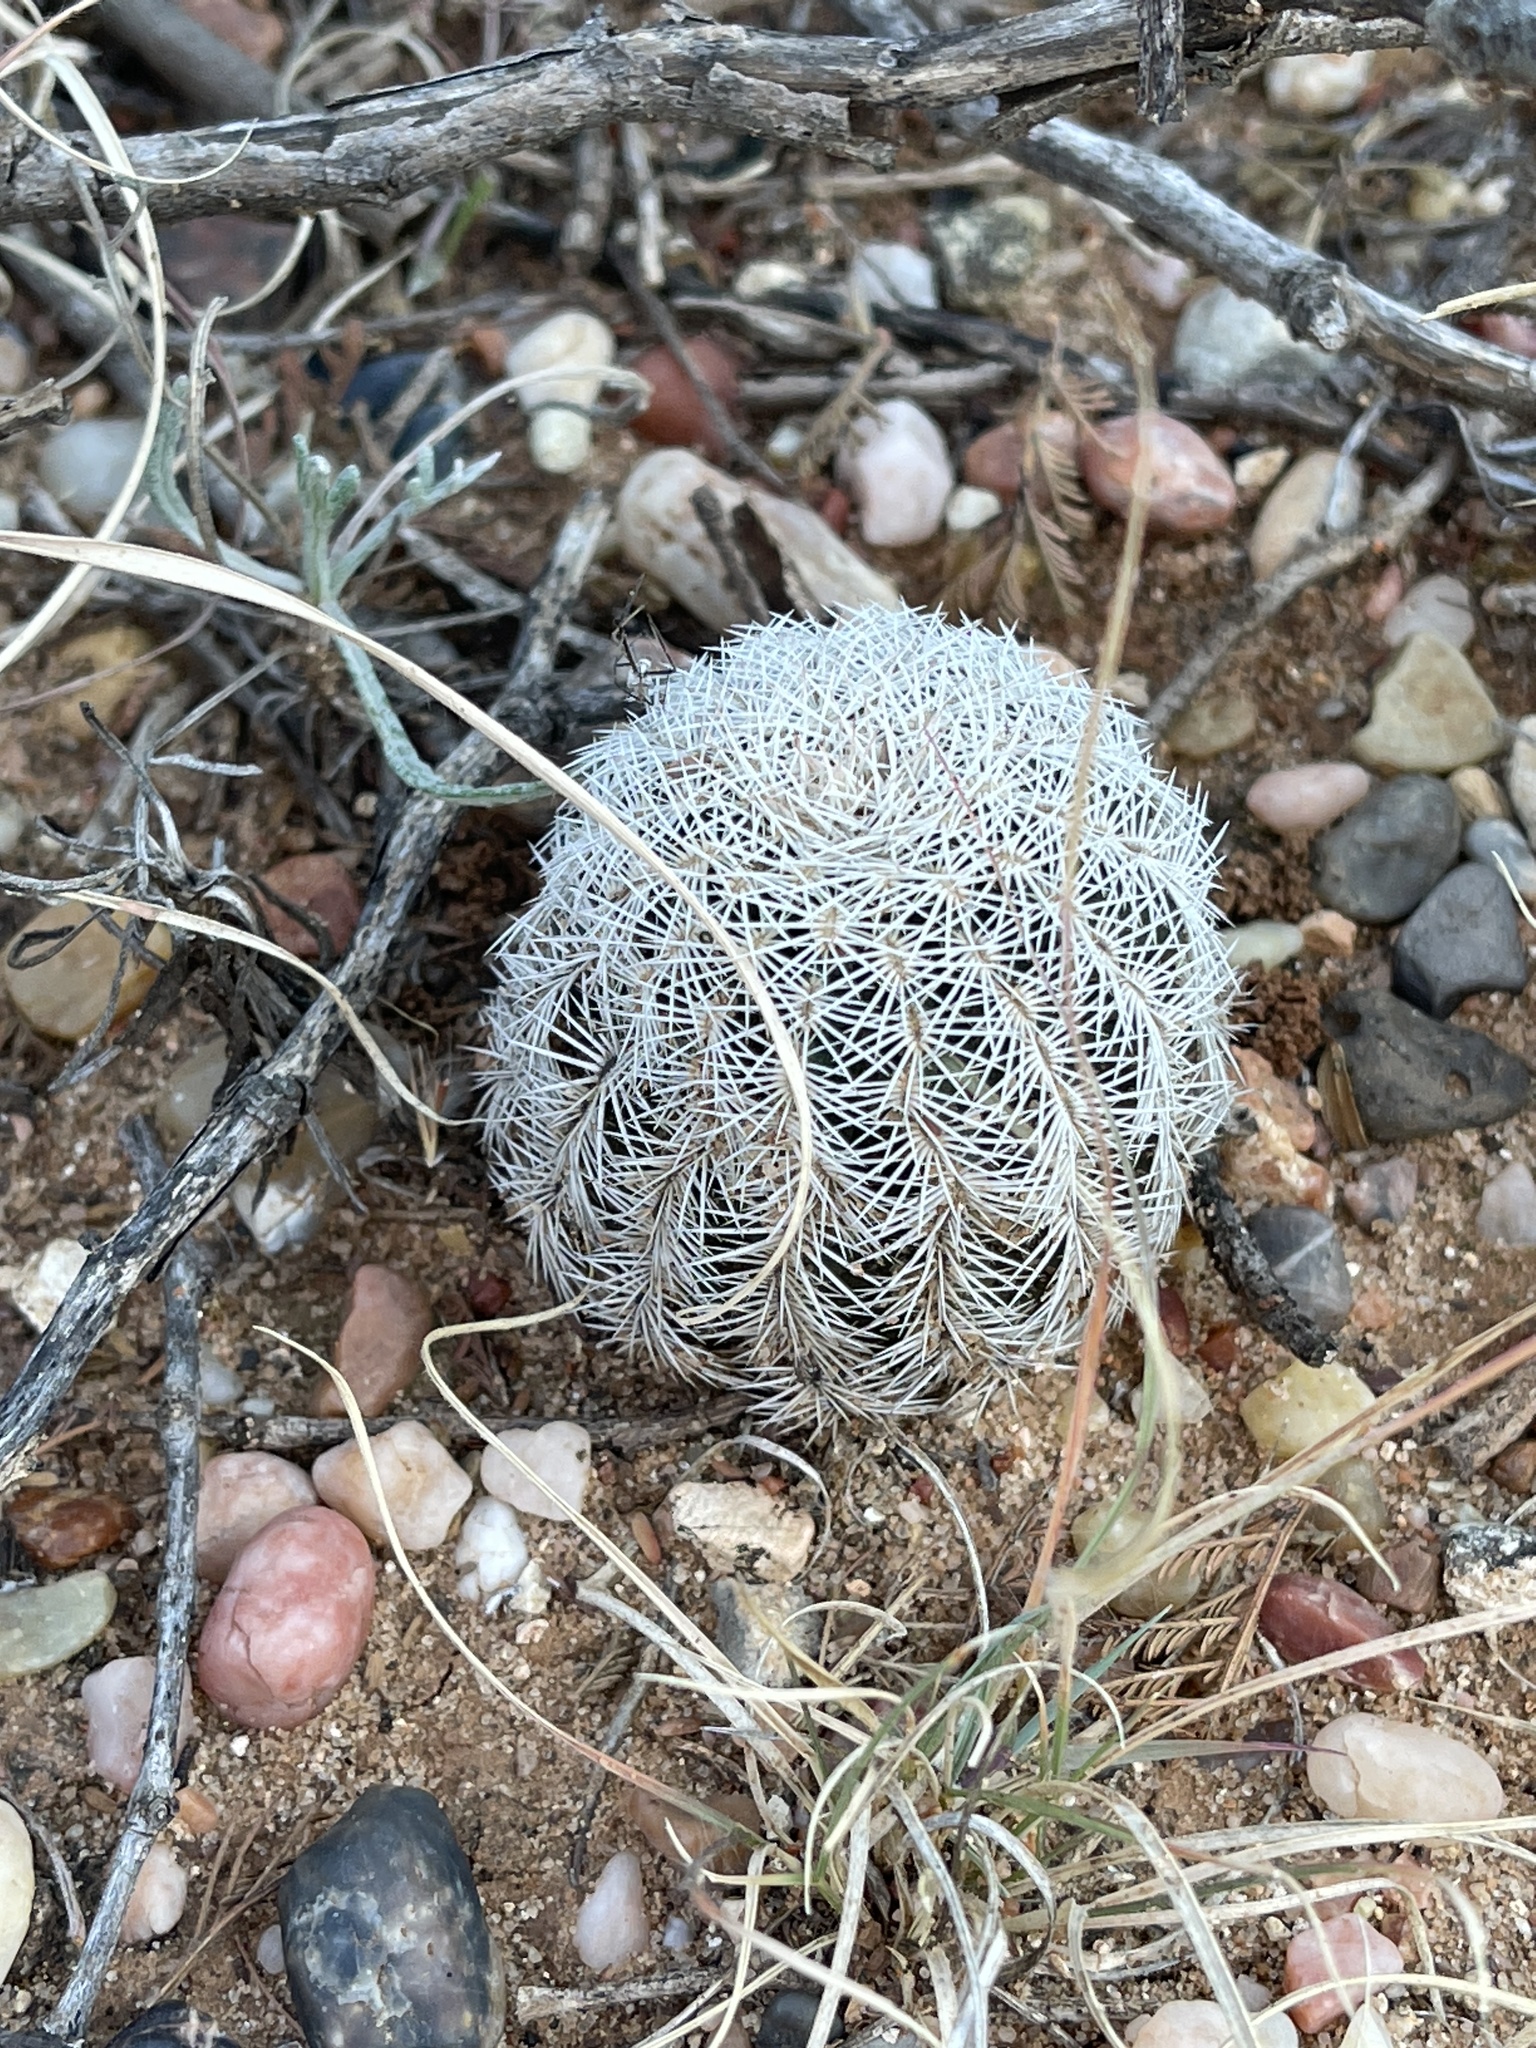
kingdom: Plantae
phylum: Tracheophyta
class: Magnoliopsida
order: Caryophyllales
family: Cactaceae
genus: Echinocereus
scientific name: Echinocereus reichenbachii
